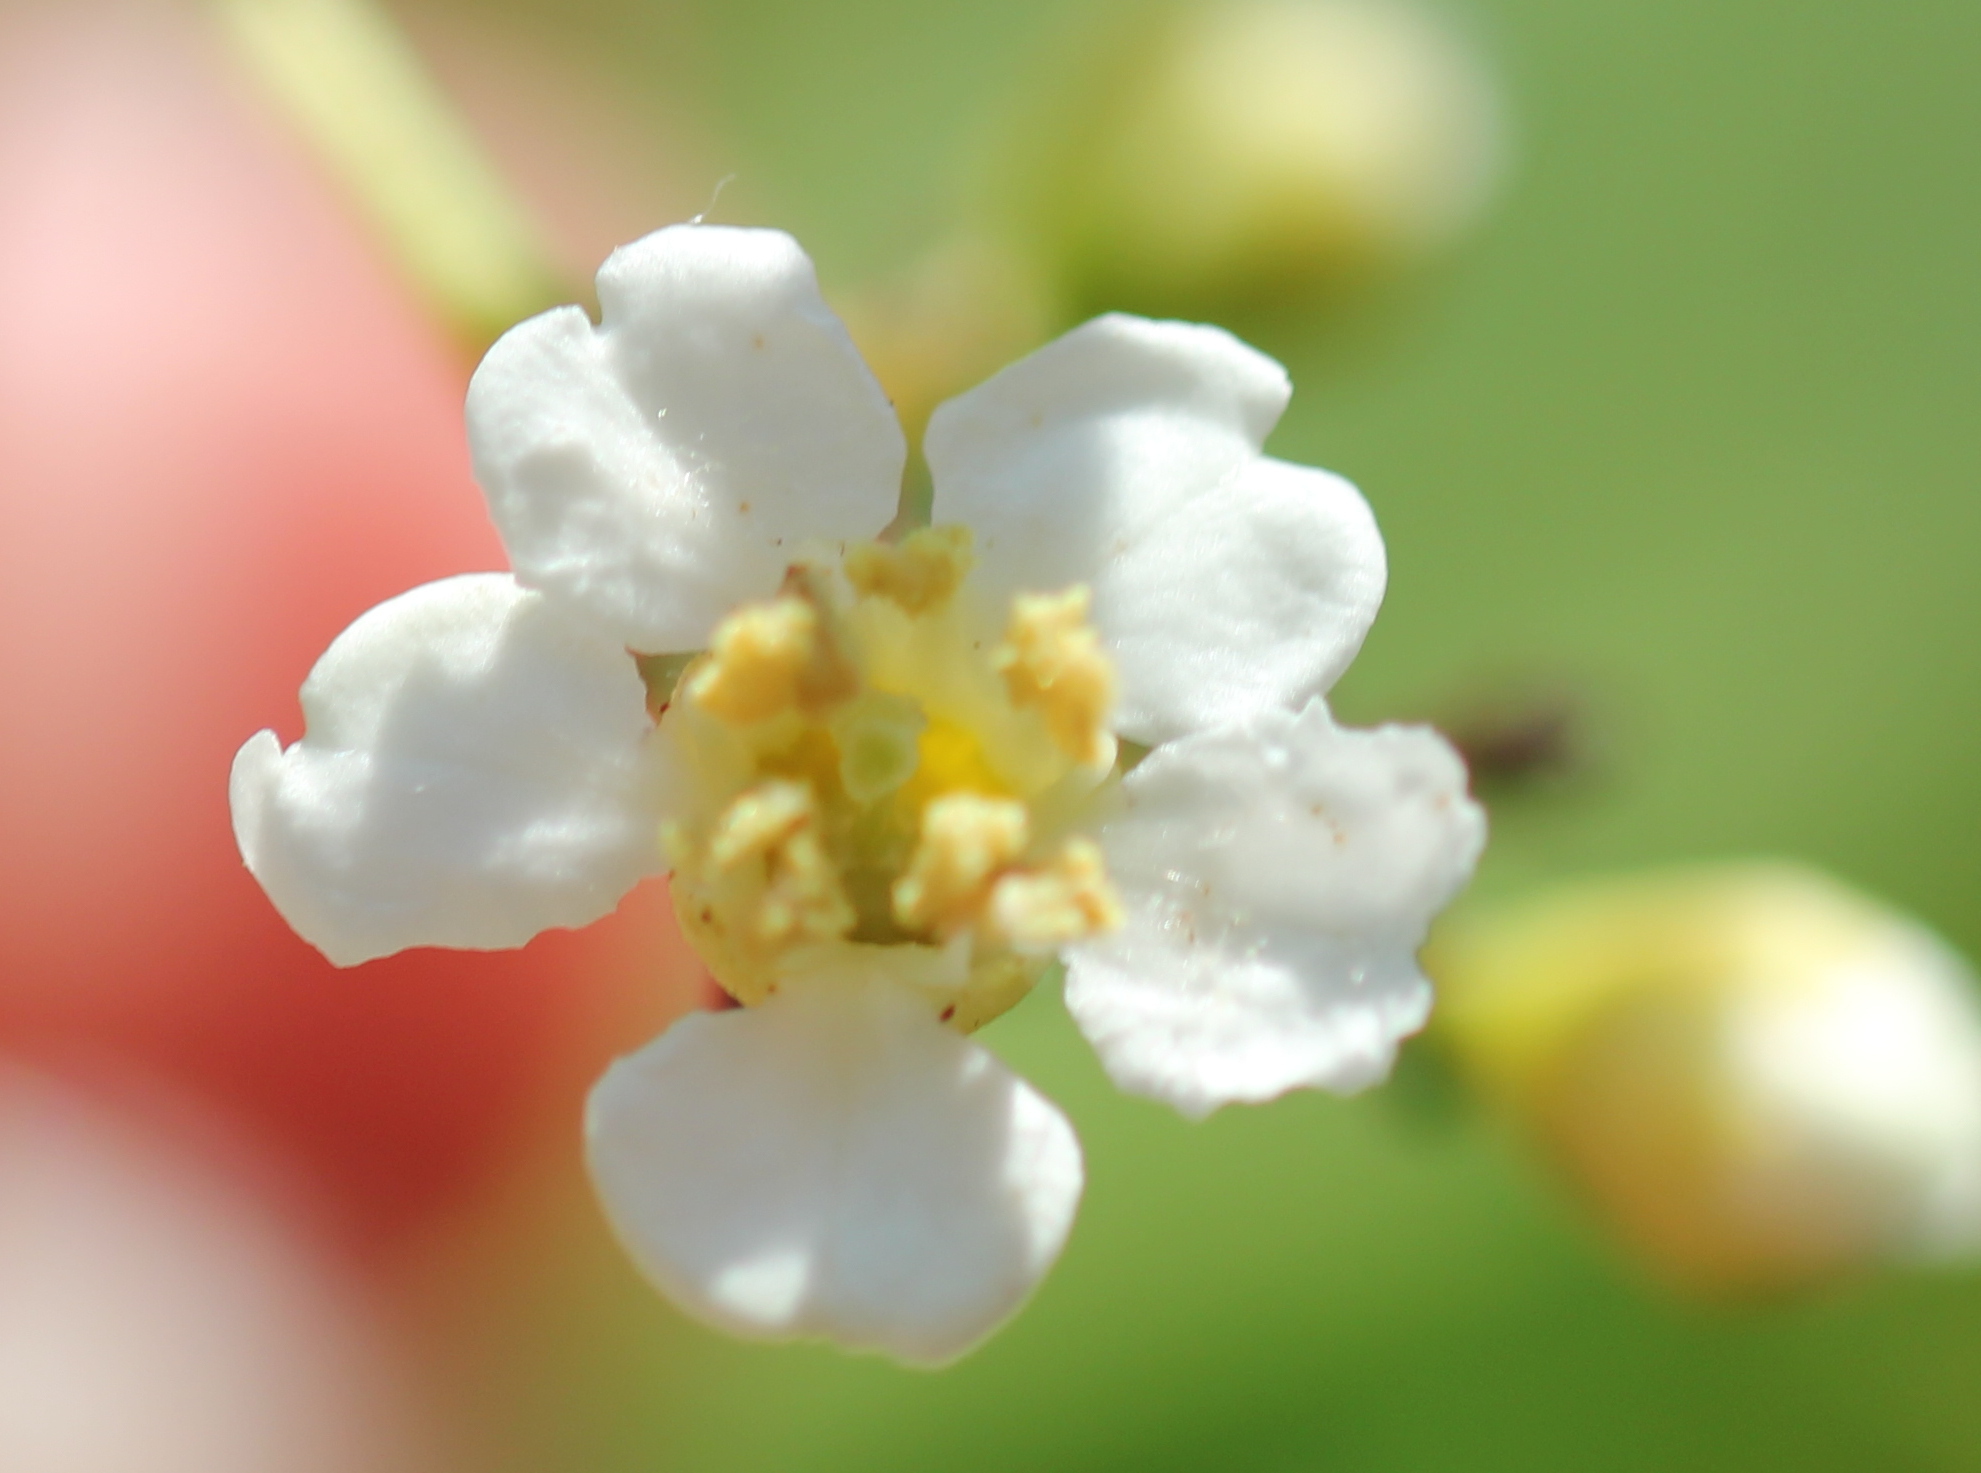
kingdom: Plantae
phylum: Tracheophyta
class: Magnoliopsida
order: Rosales
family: Rosaceae
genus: Heteromeles
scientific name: Heteromeles arbutifolia
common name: California-holly
